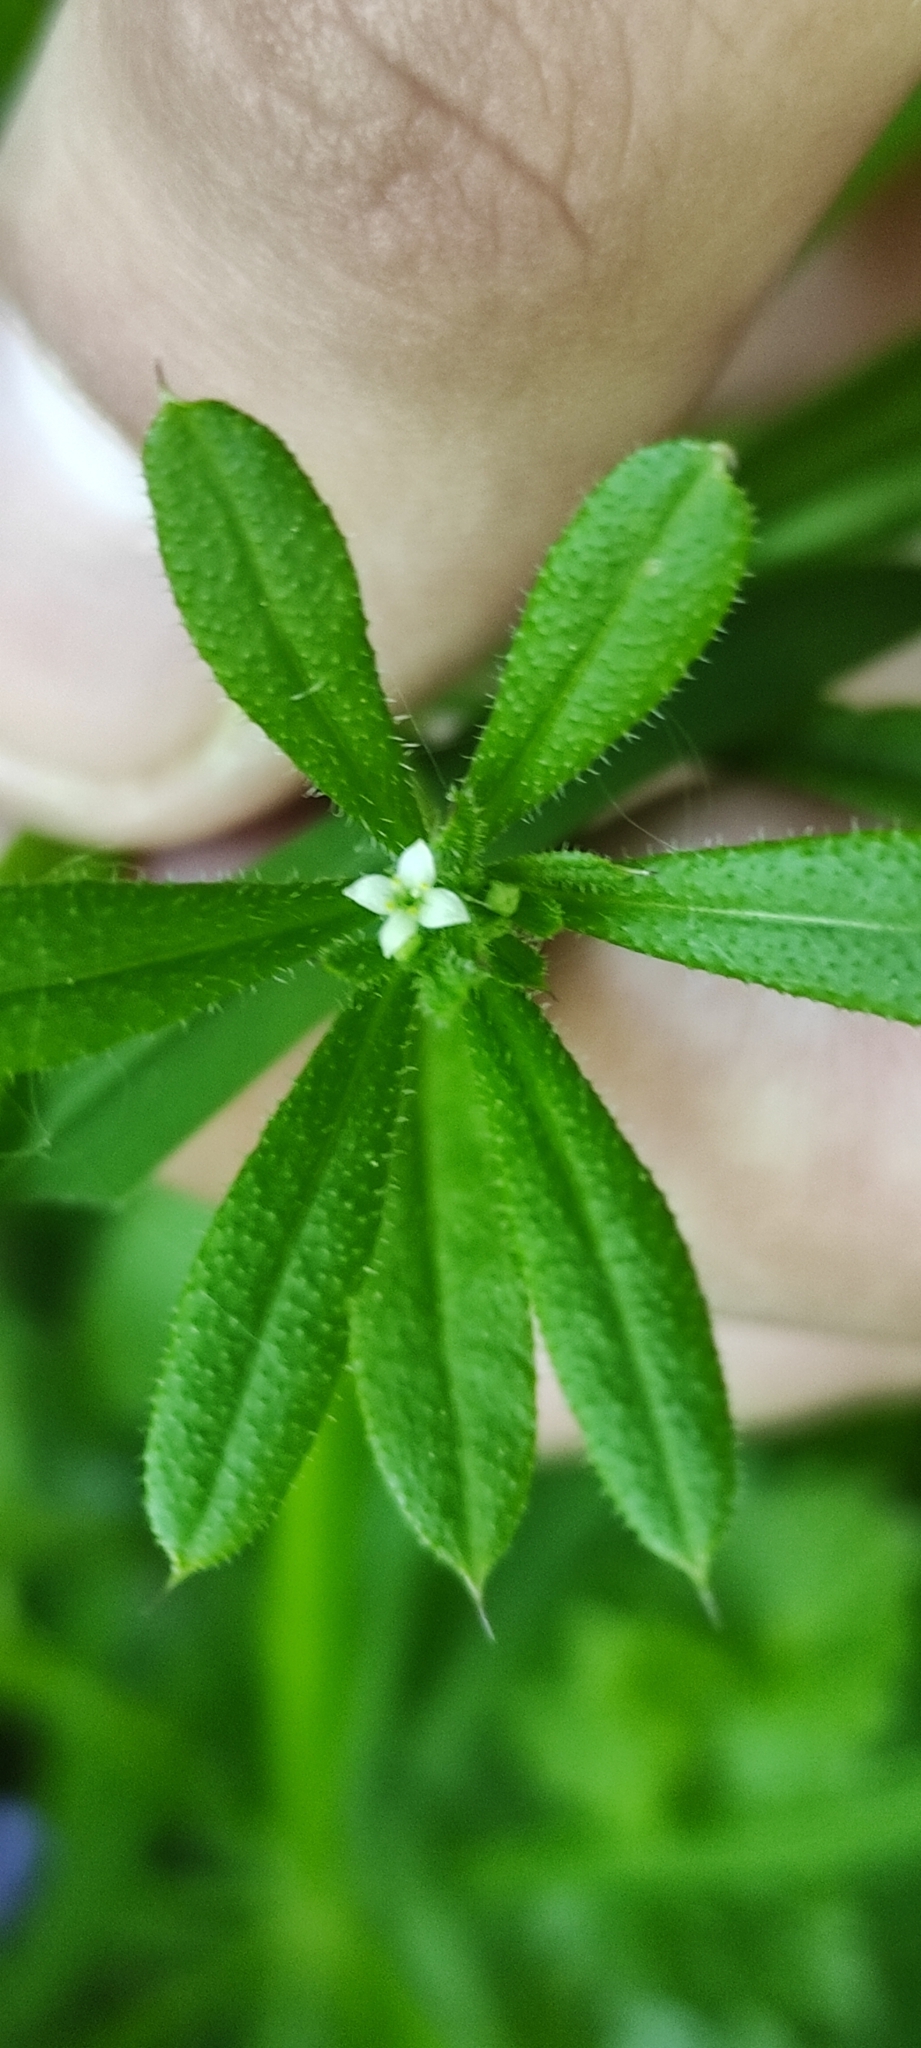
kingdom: Plantae
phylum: Tracheophyta
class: Magnoliopsida
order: Gentianales
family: Rubiaceae
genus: Galium
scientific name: Galium aparine
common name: Cleavers
